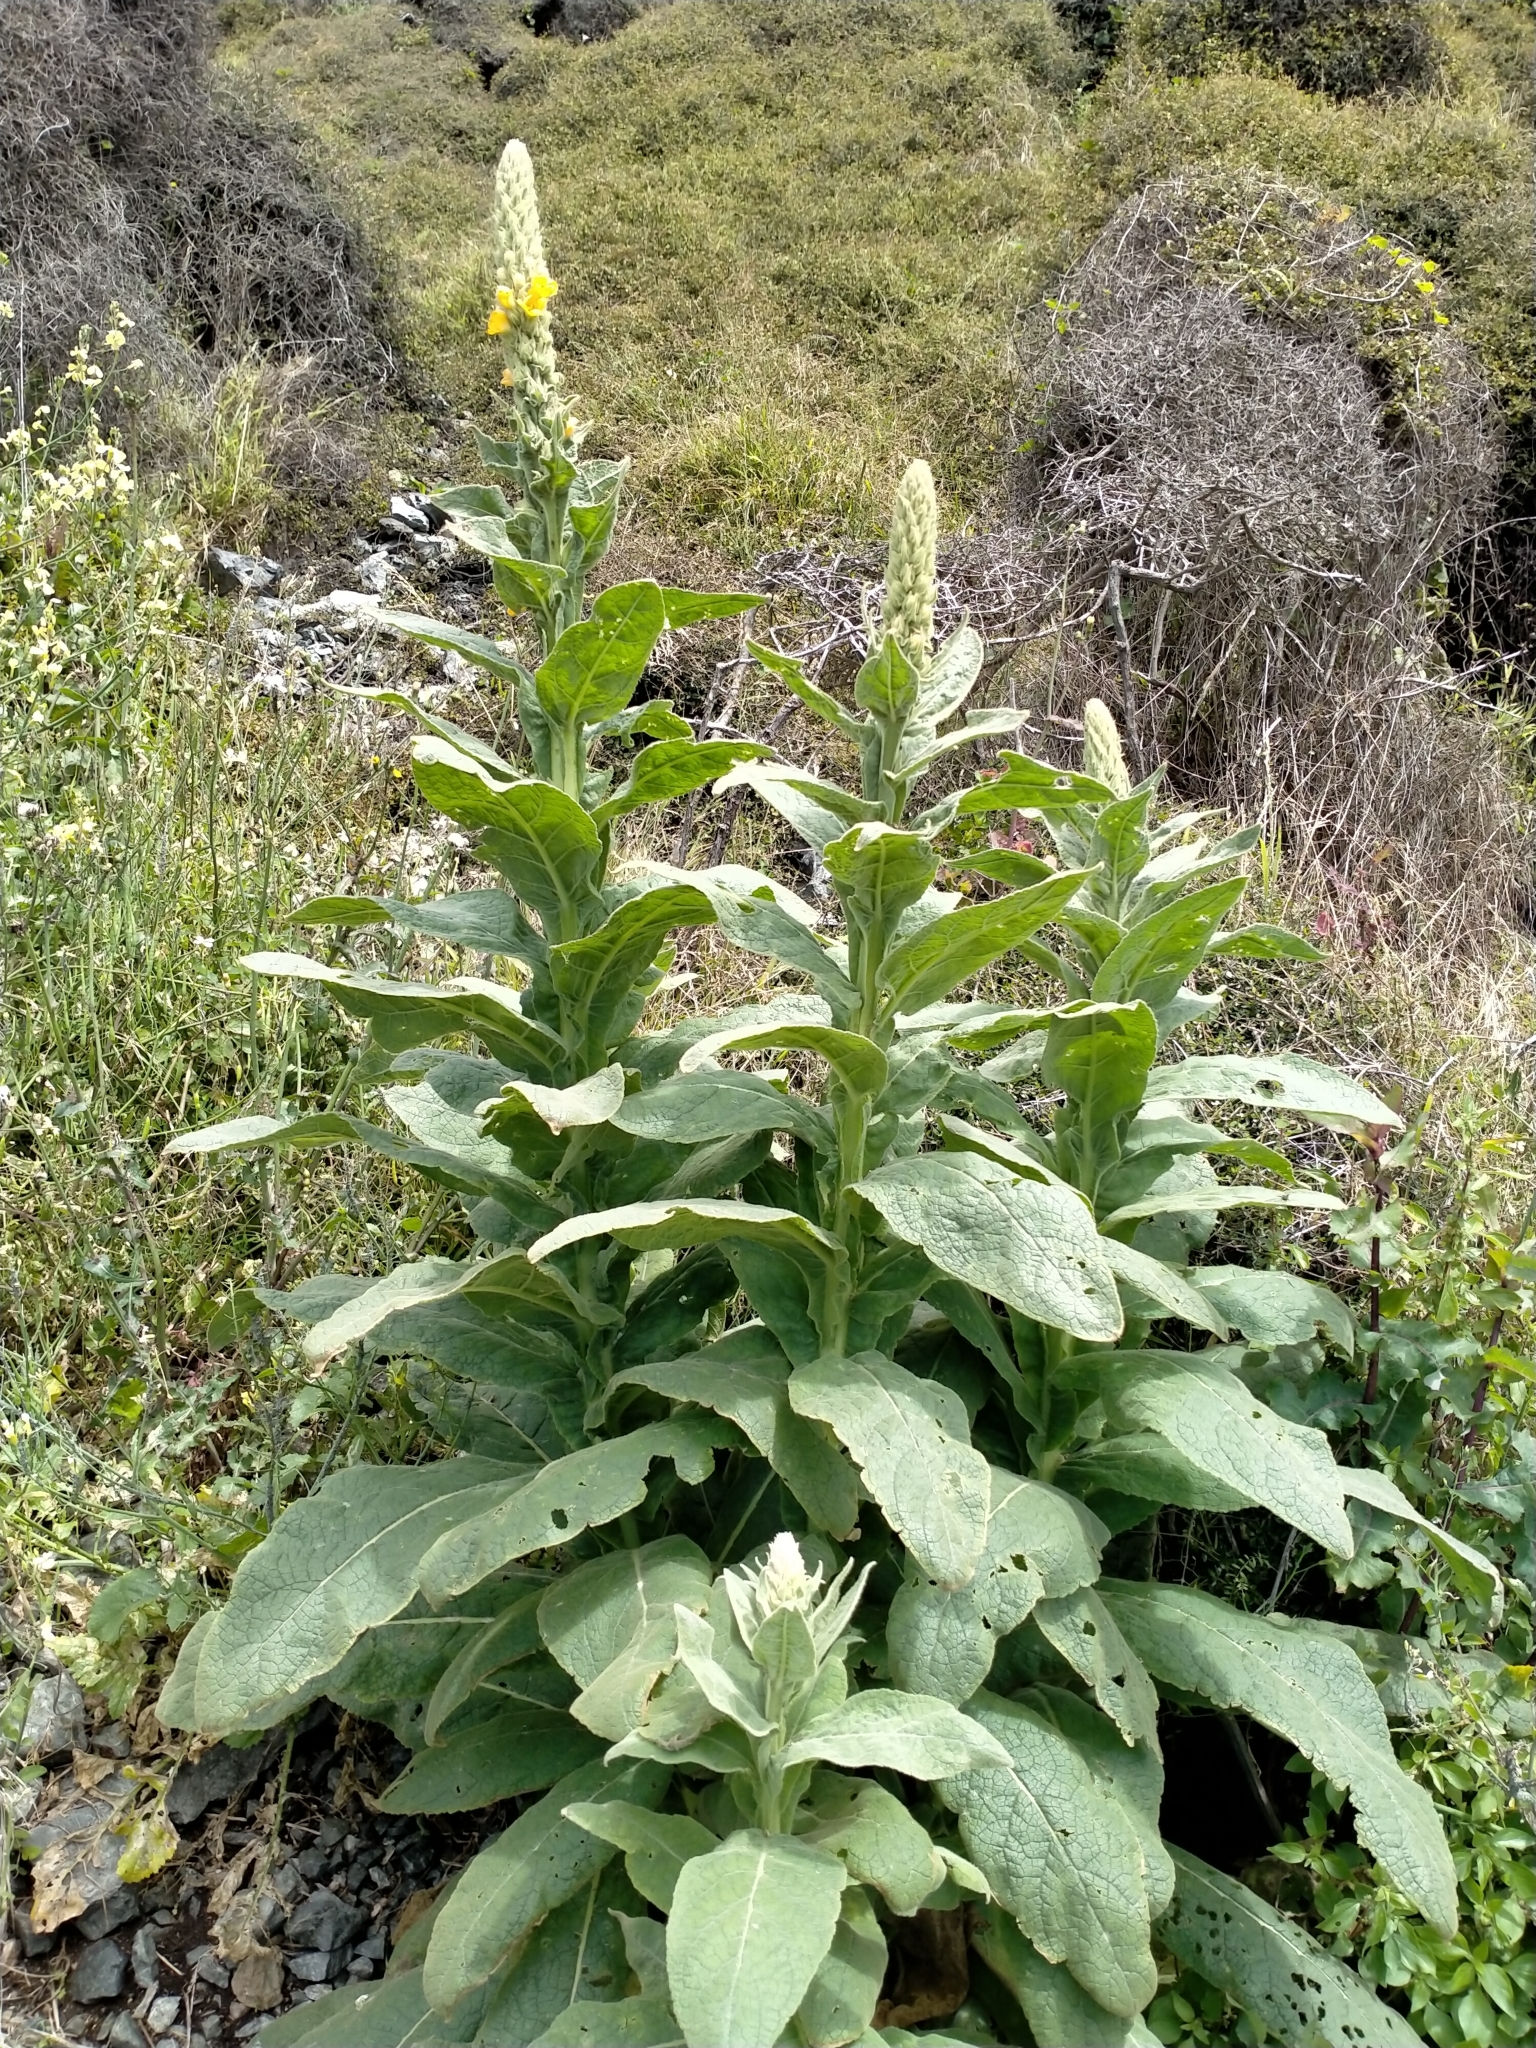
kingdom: Plantae
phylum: Tracheophyta
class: Magnoliopsida
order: Lamiales
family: Scrophulariaceae
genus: Verbascum
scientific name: Verbascum thapsus
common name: Common mullein
